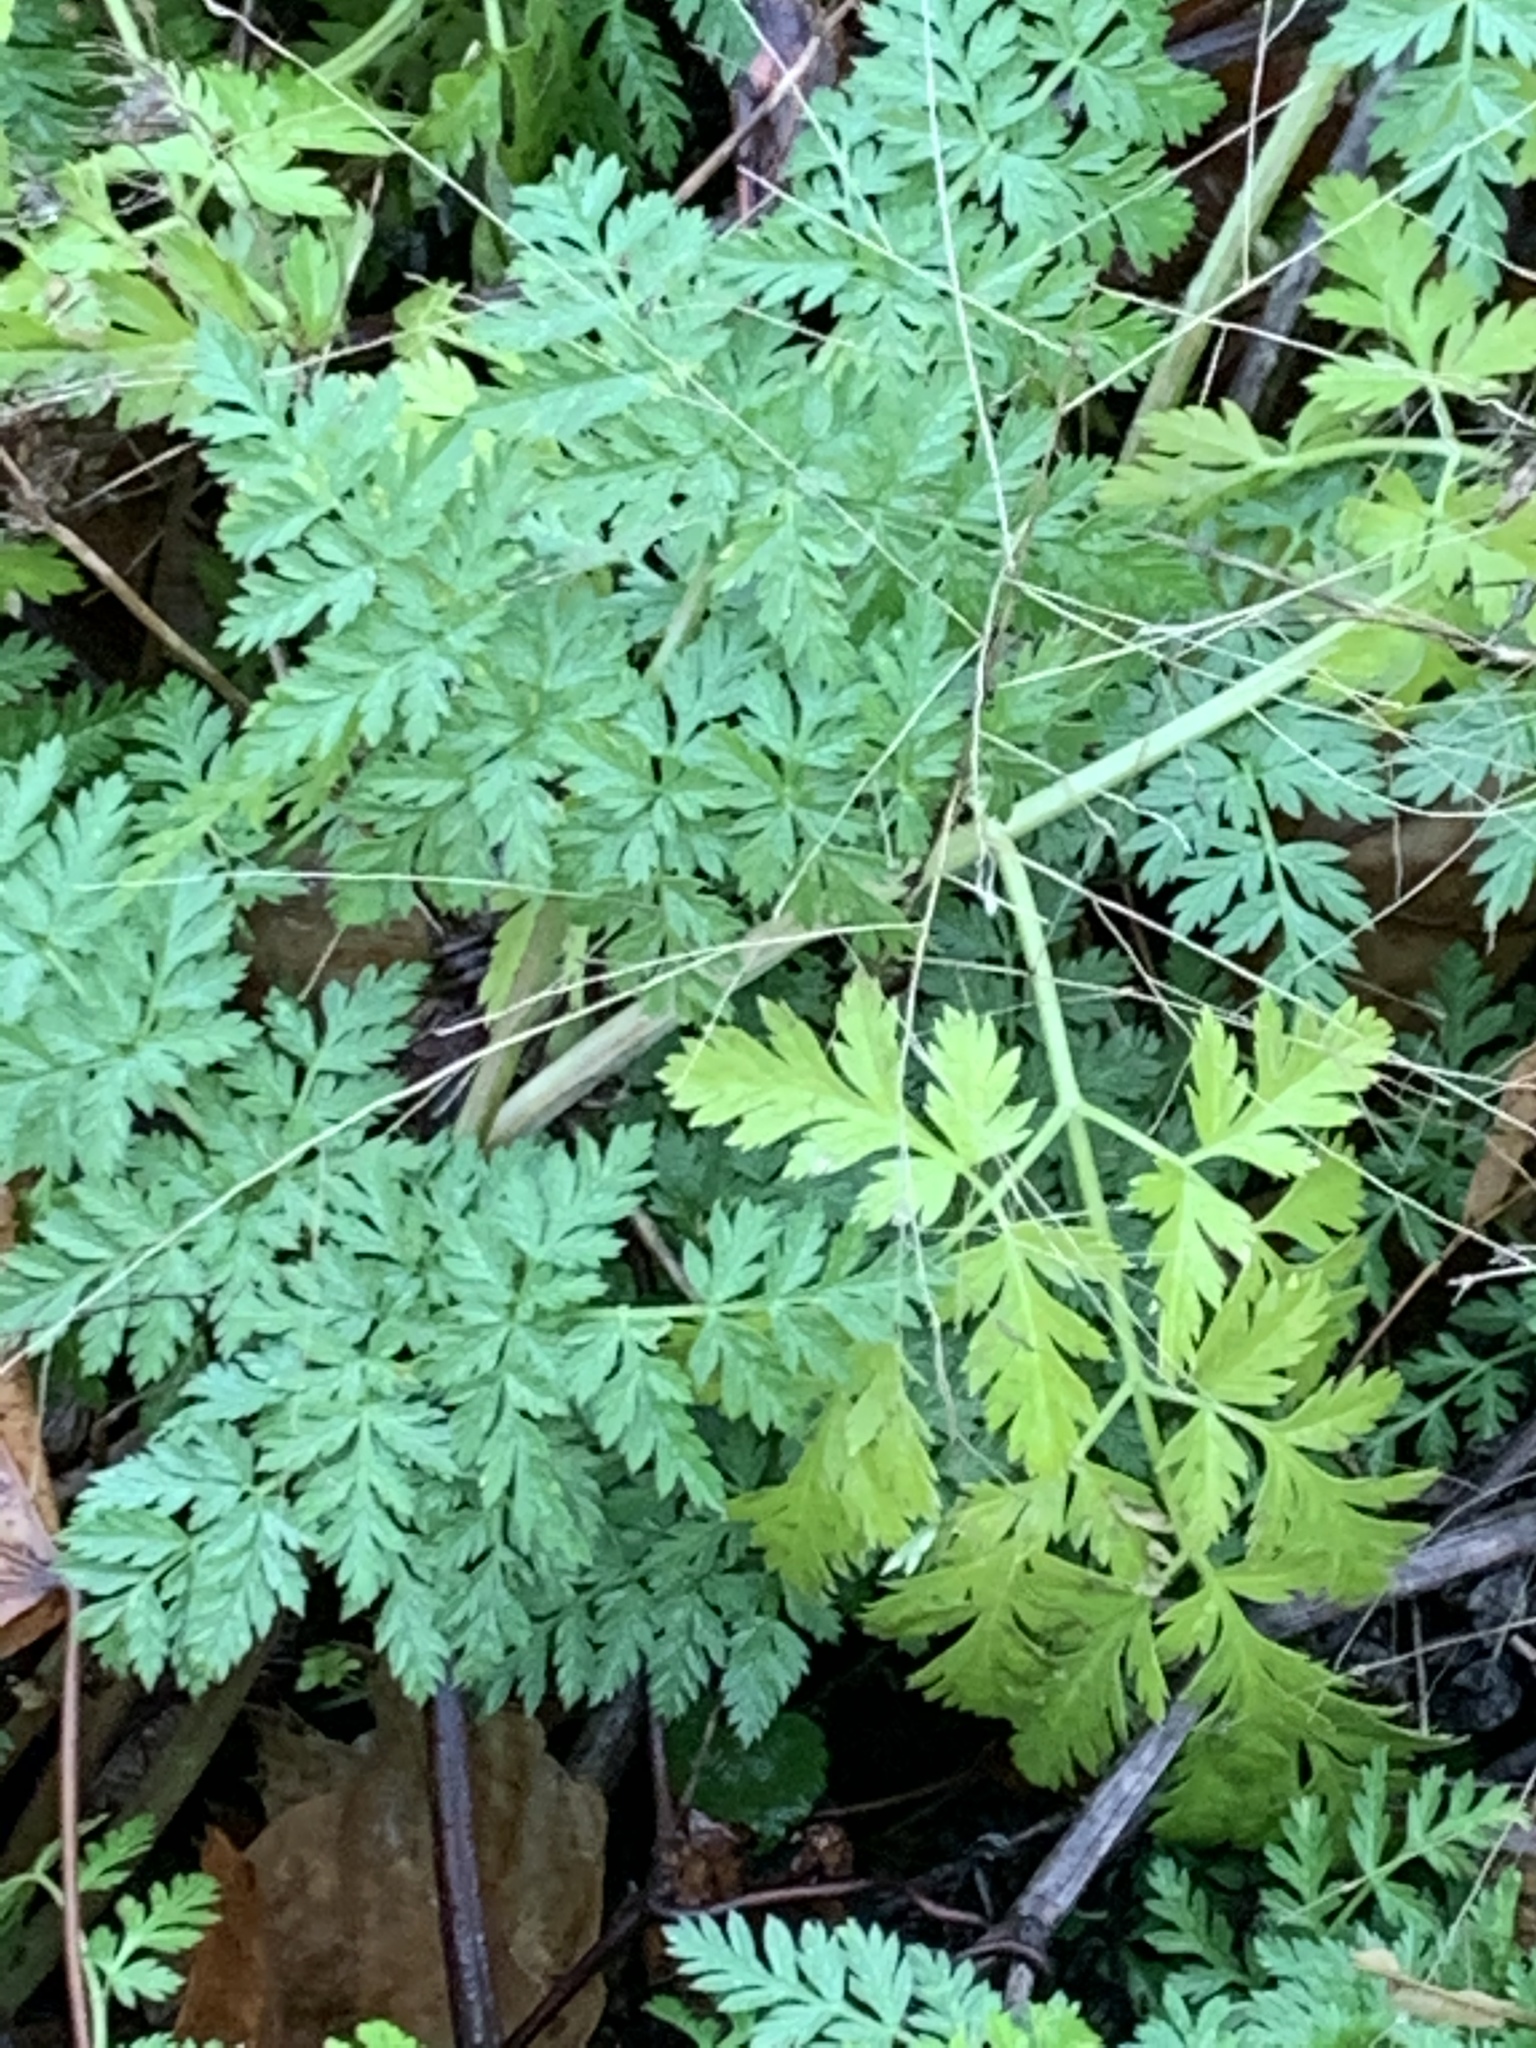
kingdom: Plantae
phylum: Tracheophyta
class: Magnoliopsida
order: Apiales
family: Apiaceae
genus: Conium
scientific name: Conium maculatum
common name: Hemlock
